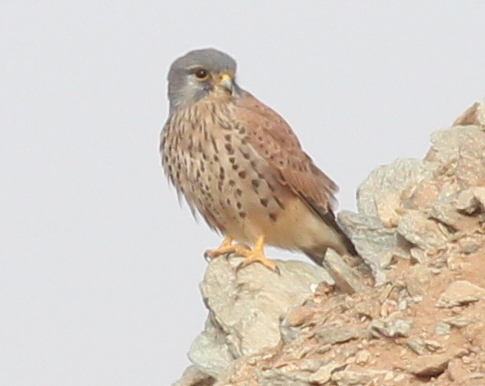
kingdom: Animalia
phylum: Chordata
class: Aves
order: Falconiformes
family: Falconidae
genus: Falco
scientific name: Falco tinnunculus
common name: Common kestrel
